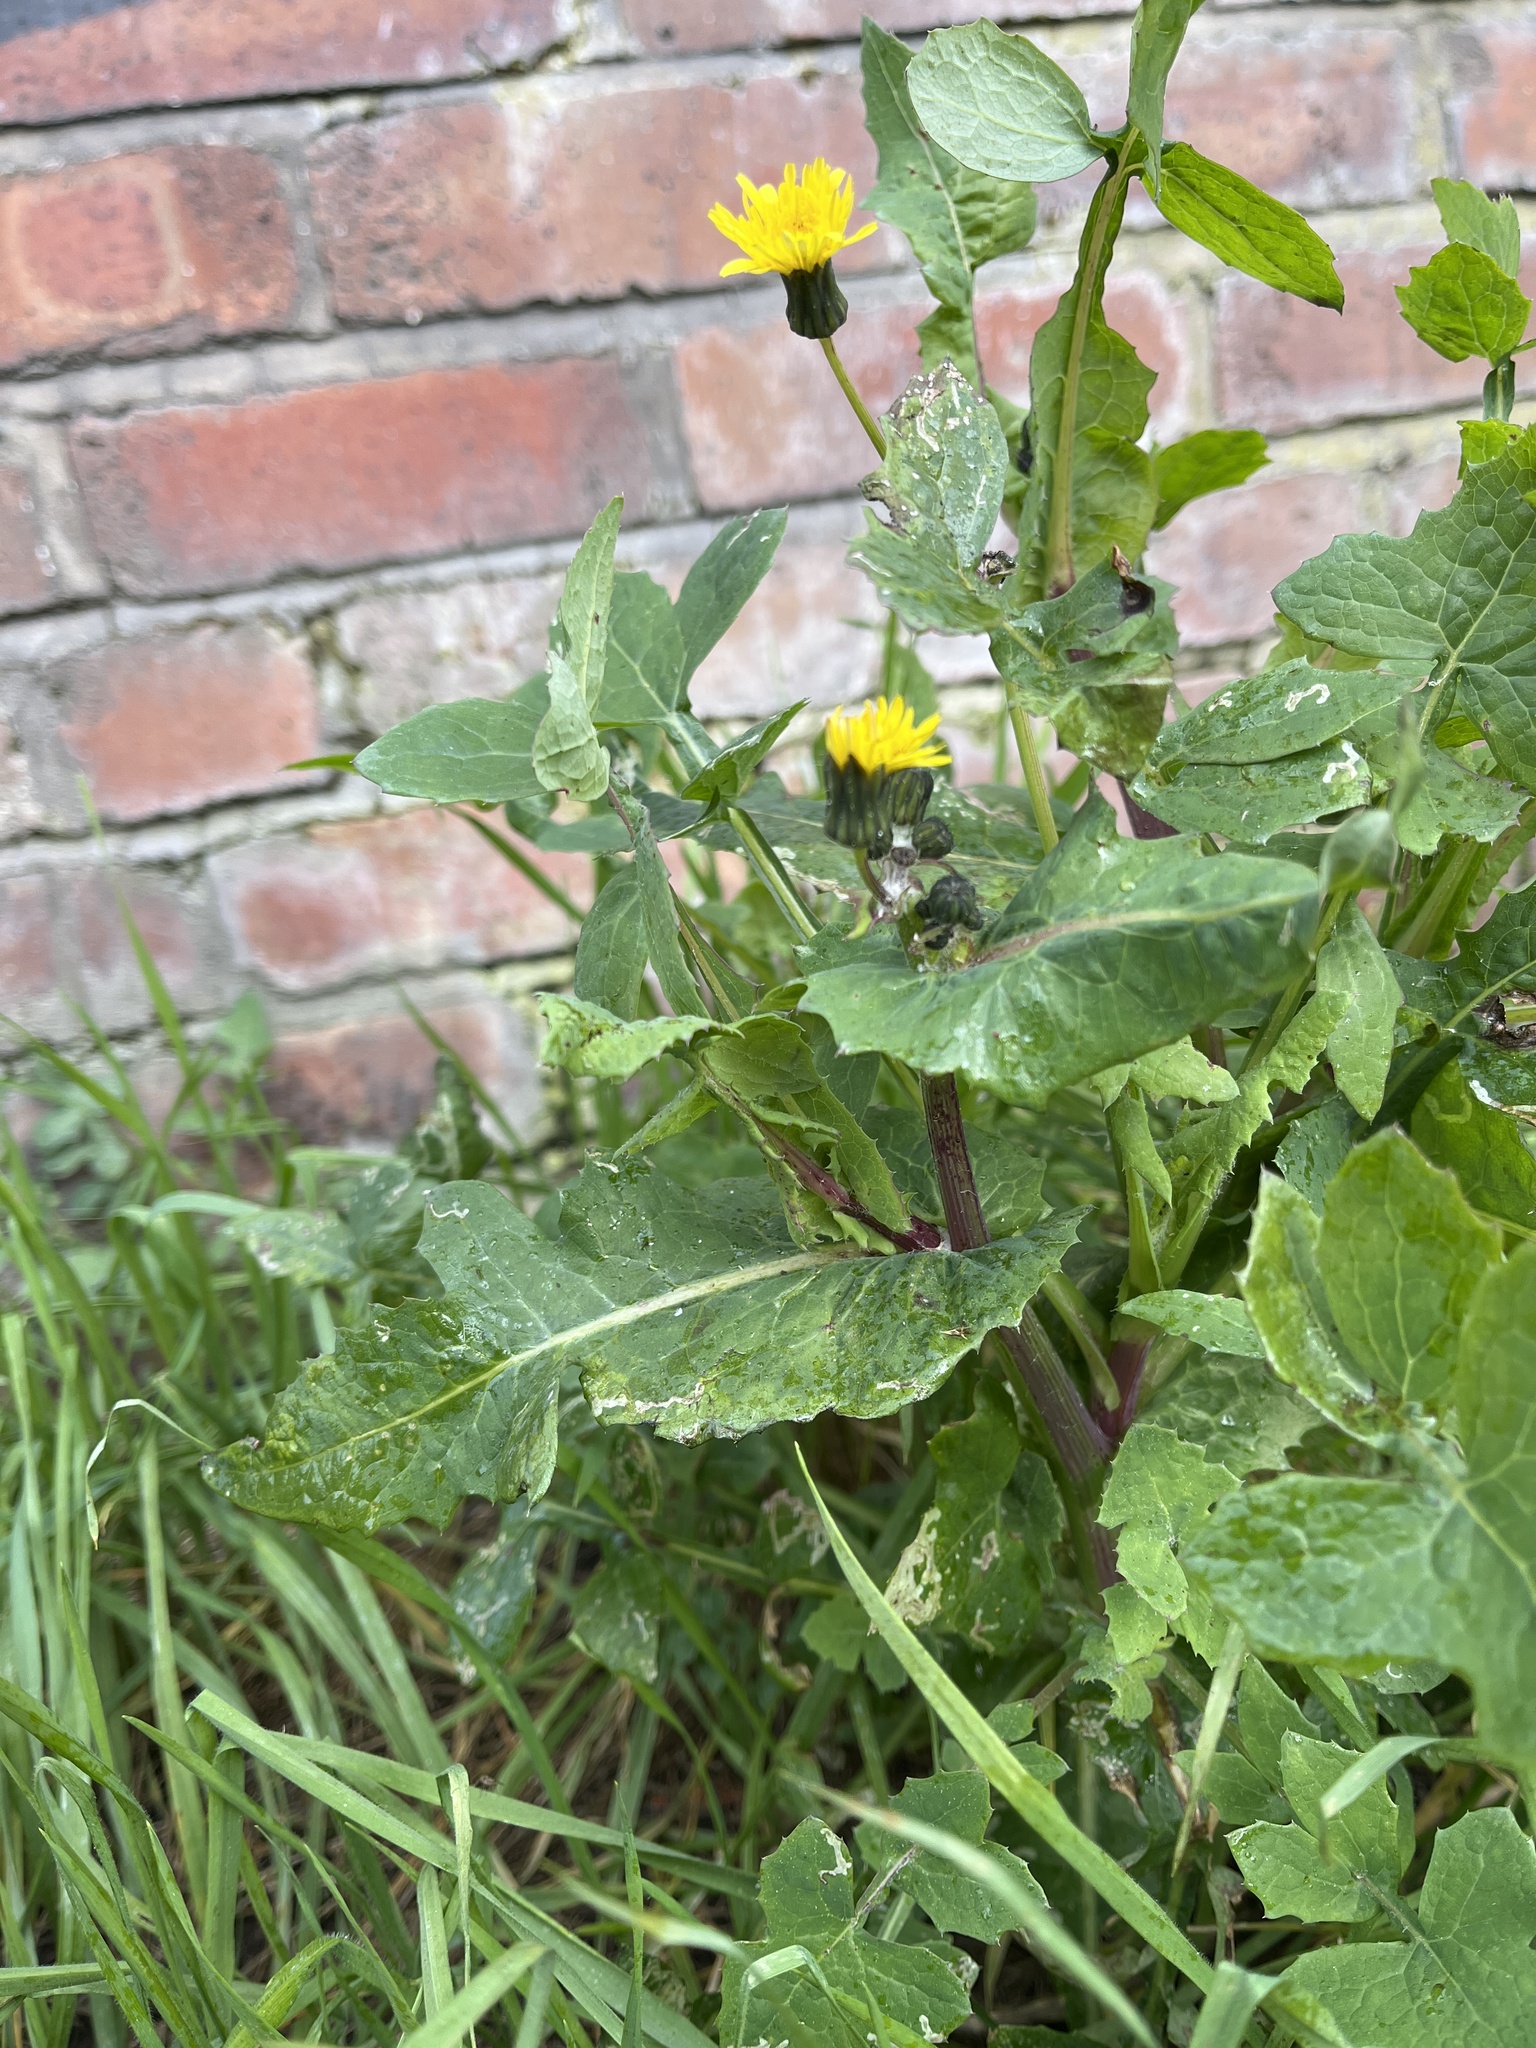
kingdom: Plantae
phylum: Tracheophyta
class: Magnoliopsida
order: Asterales
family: Asteraceae
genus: Sonchus
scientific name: Sonchus oleraceus
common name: Common sowthistle
